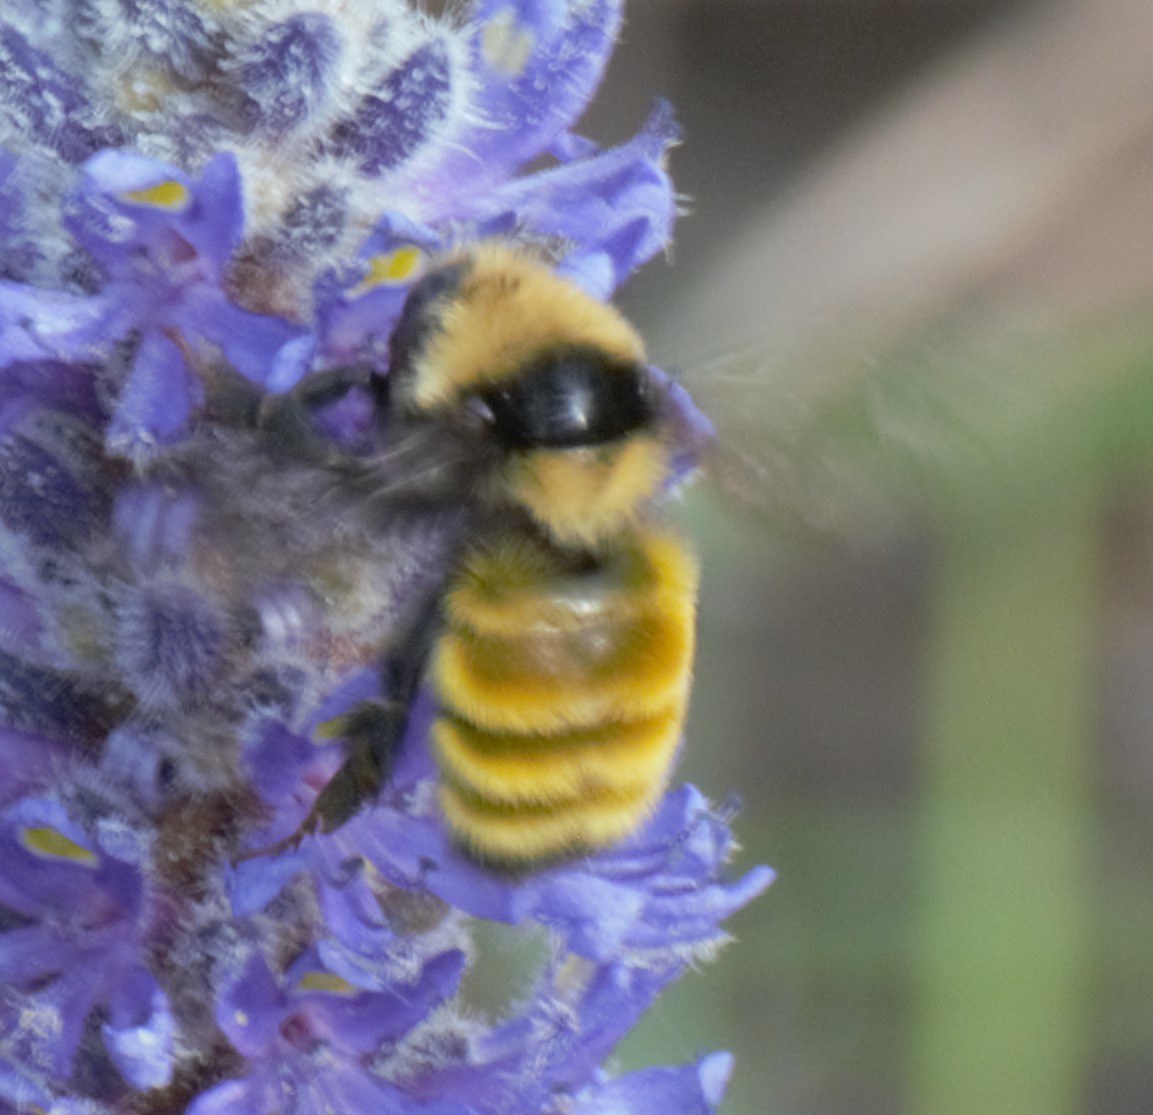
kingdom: Animalia
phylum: Arthropoda
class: Insecta
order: Hymenoptera
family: Apidae
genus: Bombus
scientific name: Bombus borealis
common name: Northern amber bumble bee
